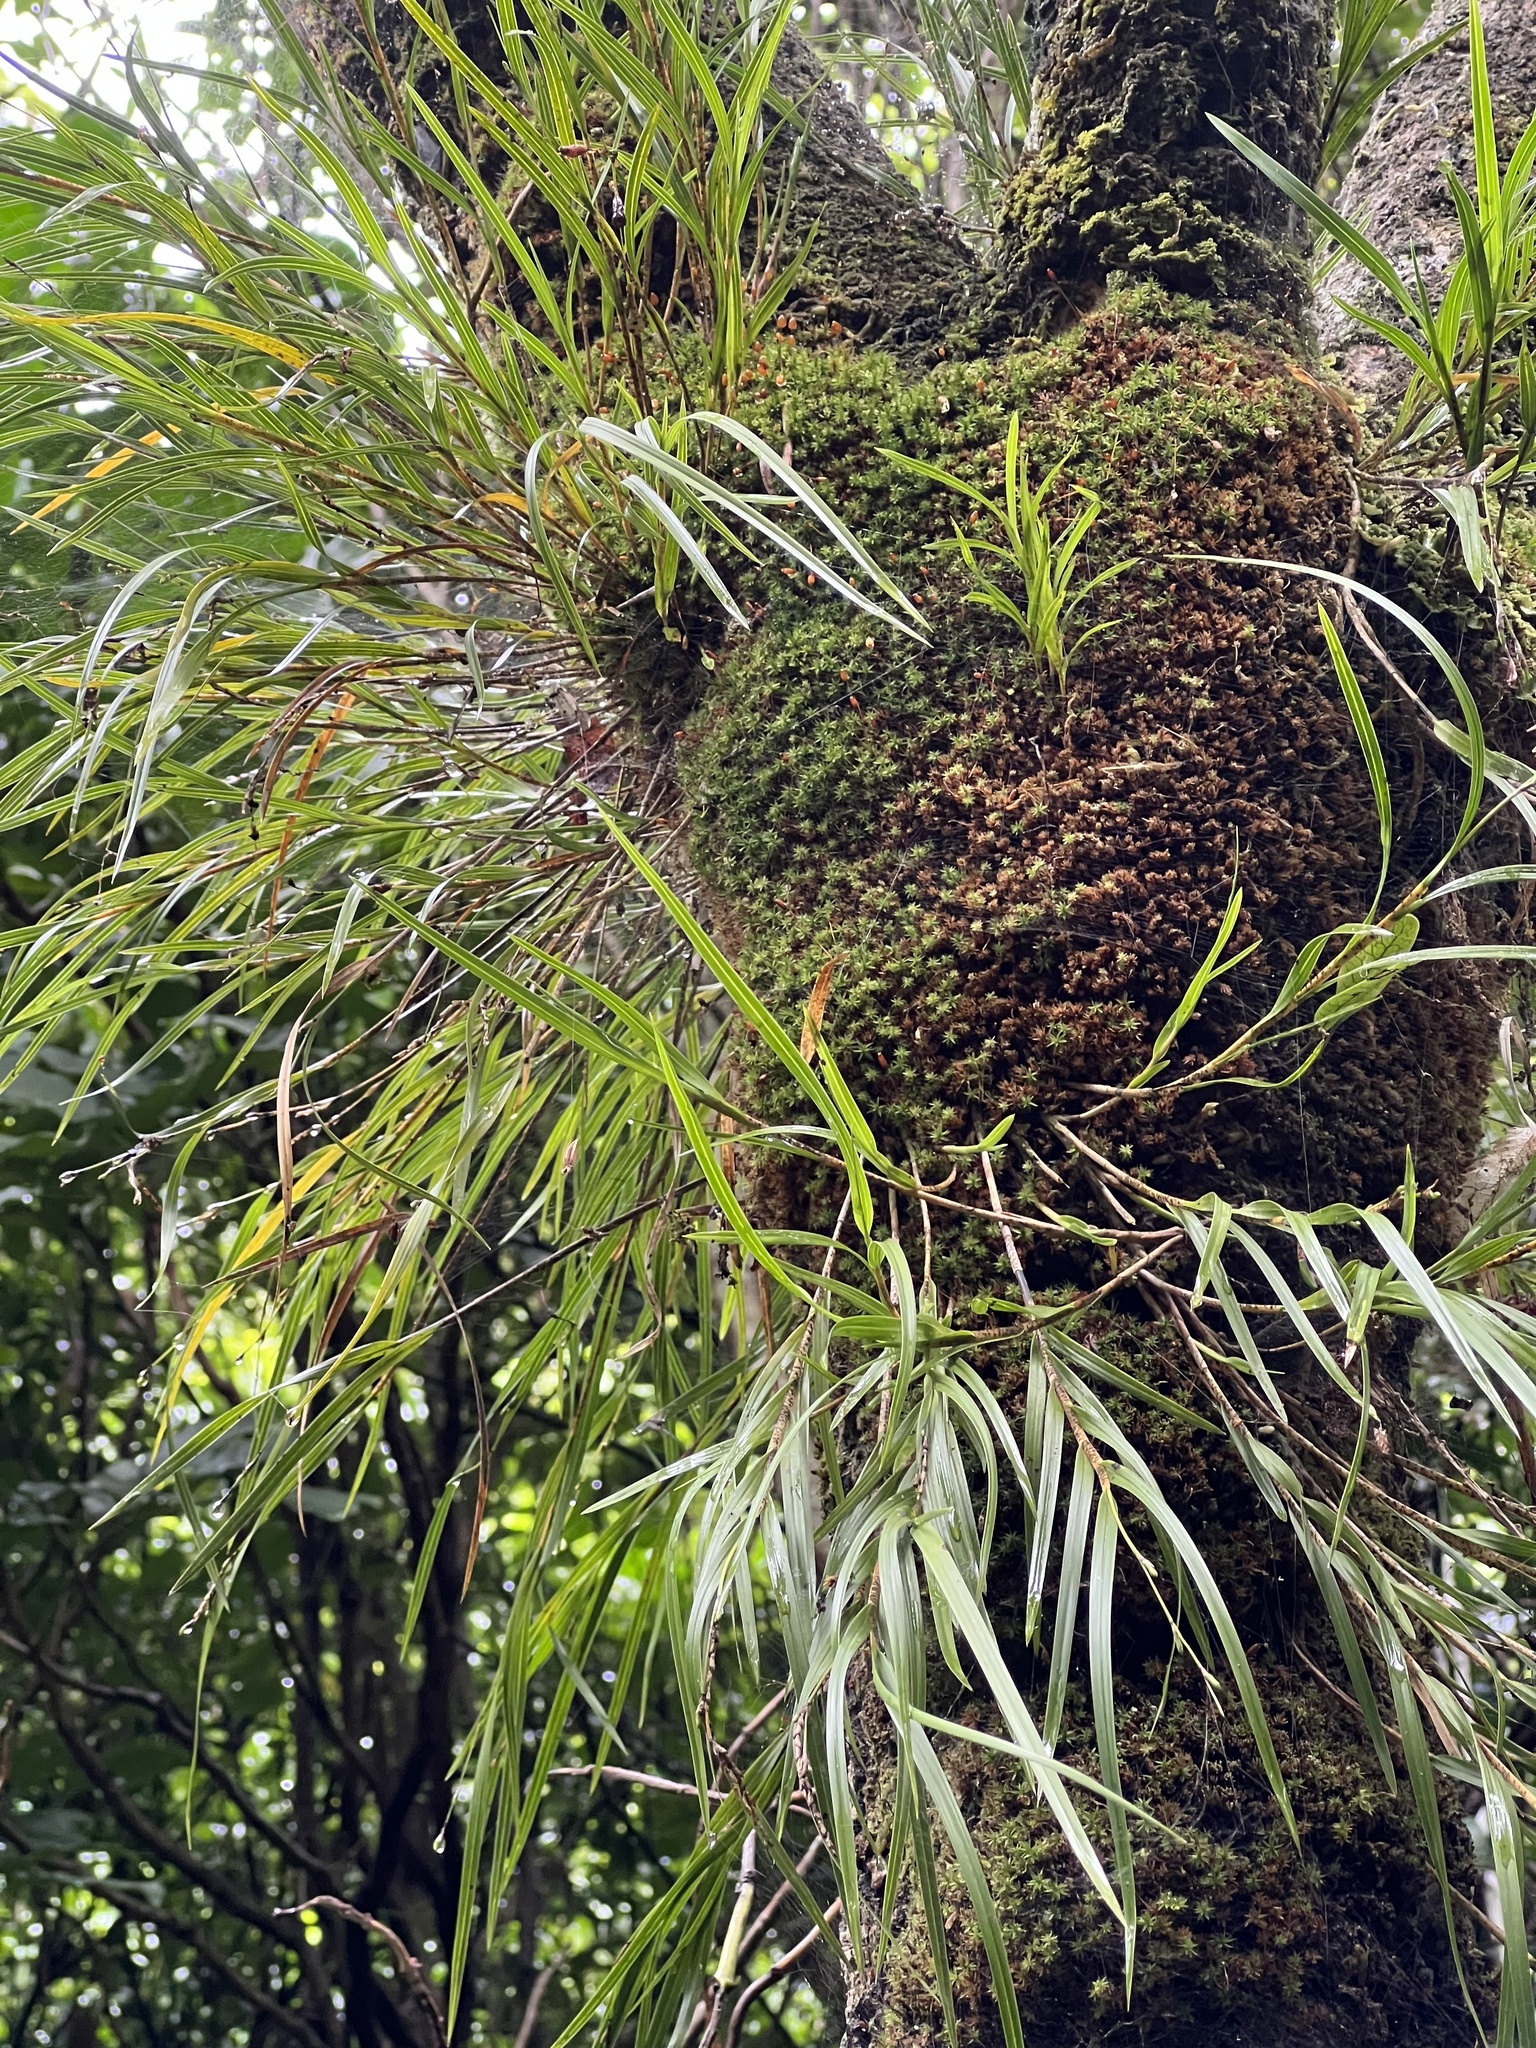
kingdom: Plantae
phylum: Tracheophyta
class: Liliopsida
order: Asparagales
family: Orchidaceae
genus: Earina
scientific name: Earina mucronata
